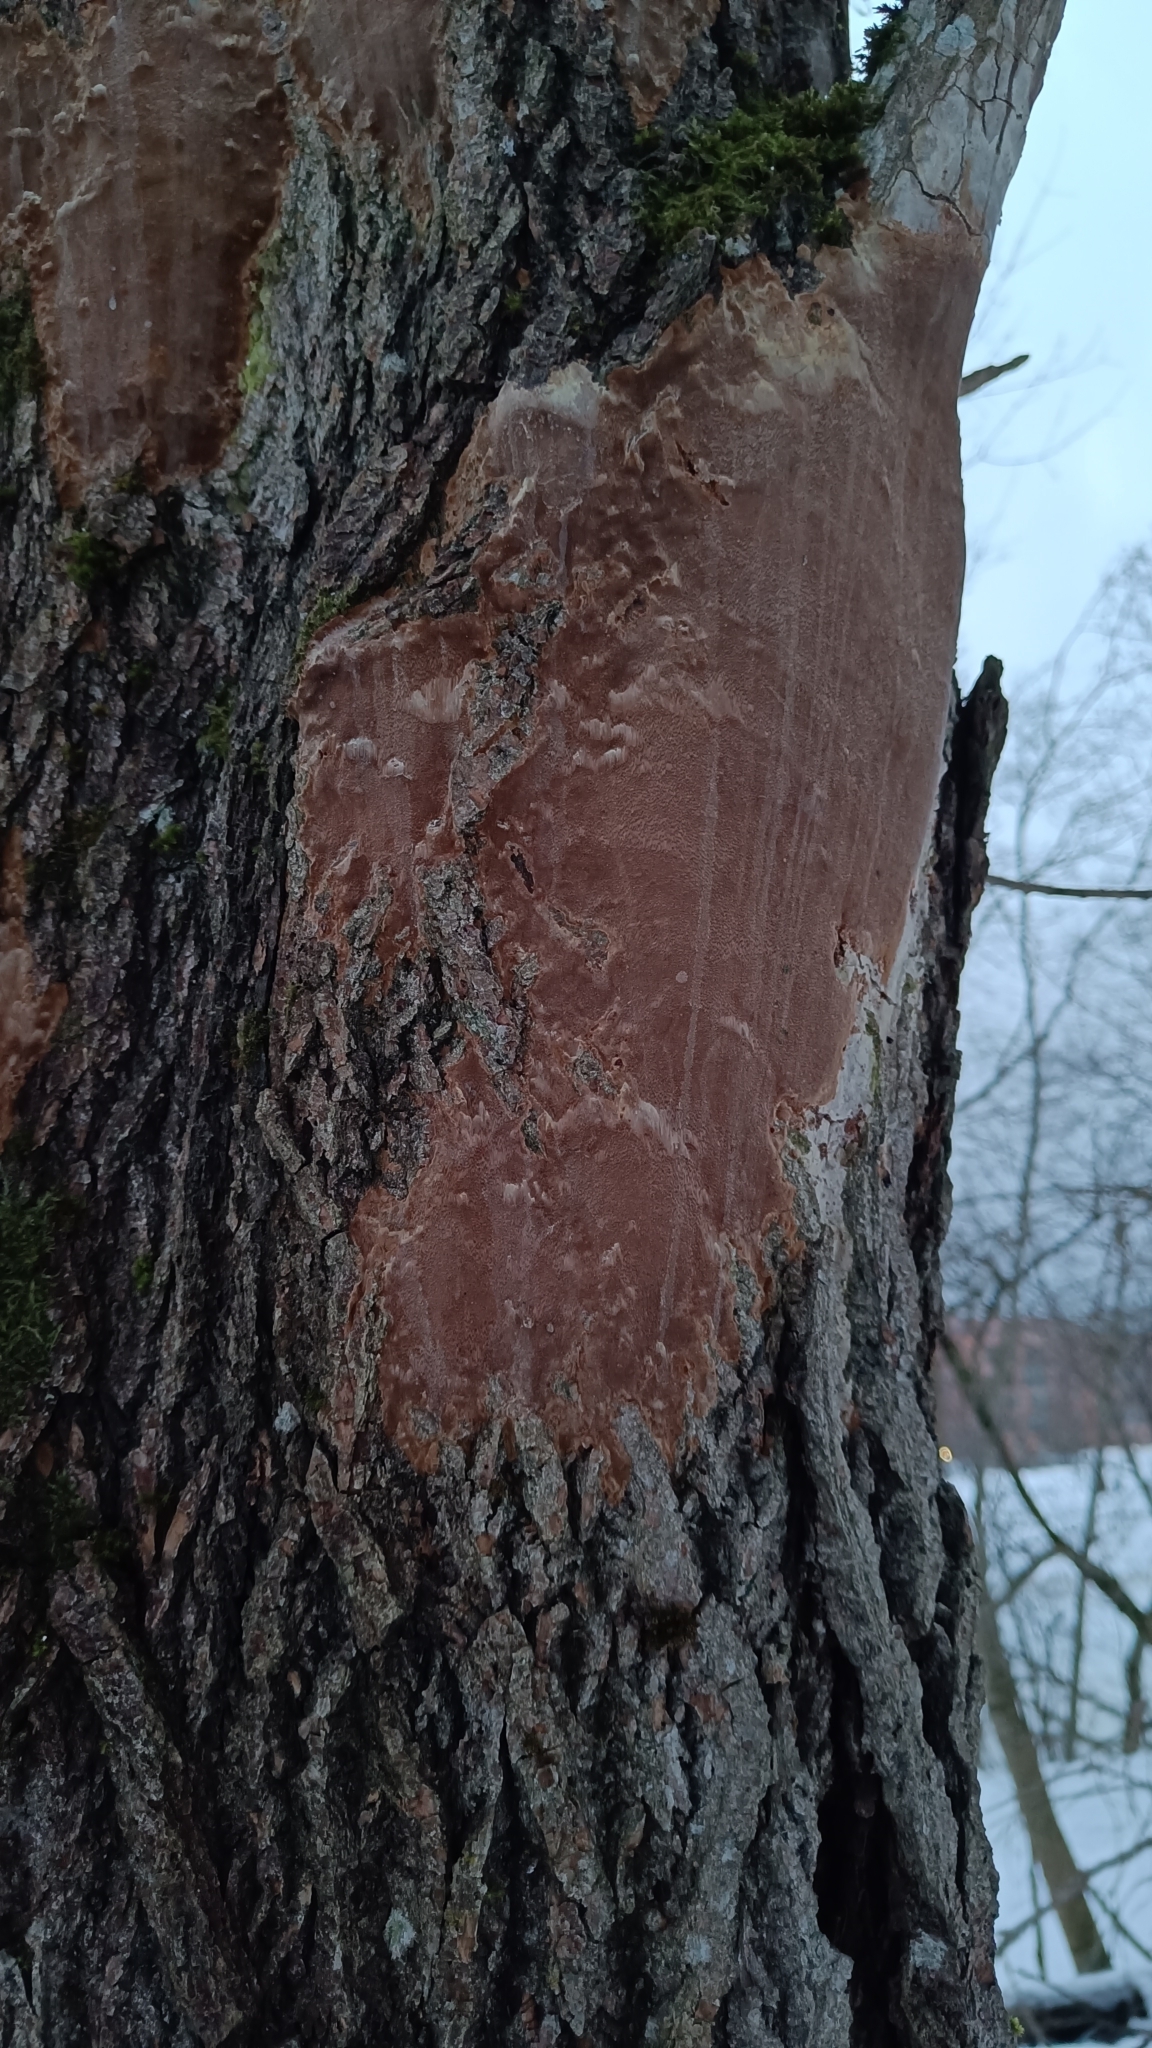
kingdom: Fungi
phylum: Basidiomycota
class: Agaricomycetes
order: Hymenochaetales
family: Hymenochaetaceae
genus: Fomitiporia
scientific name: Fomitiporia punctata
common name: Elbowpatch crust
